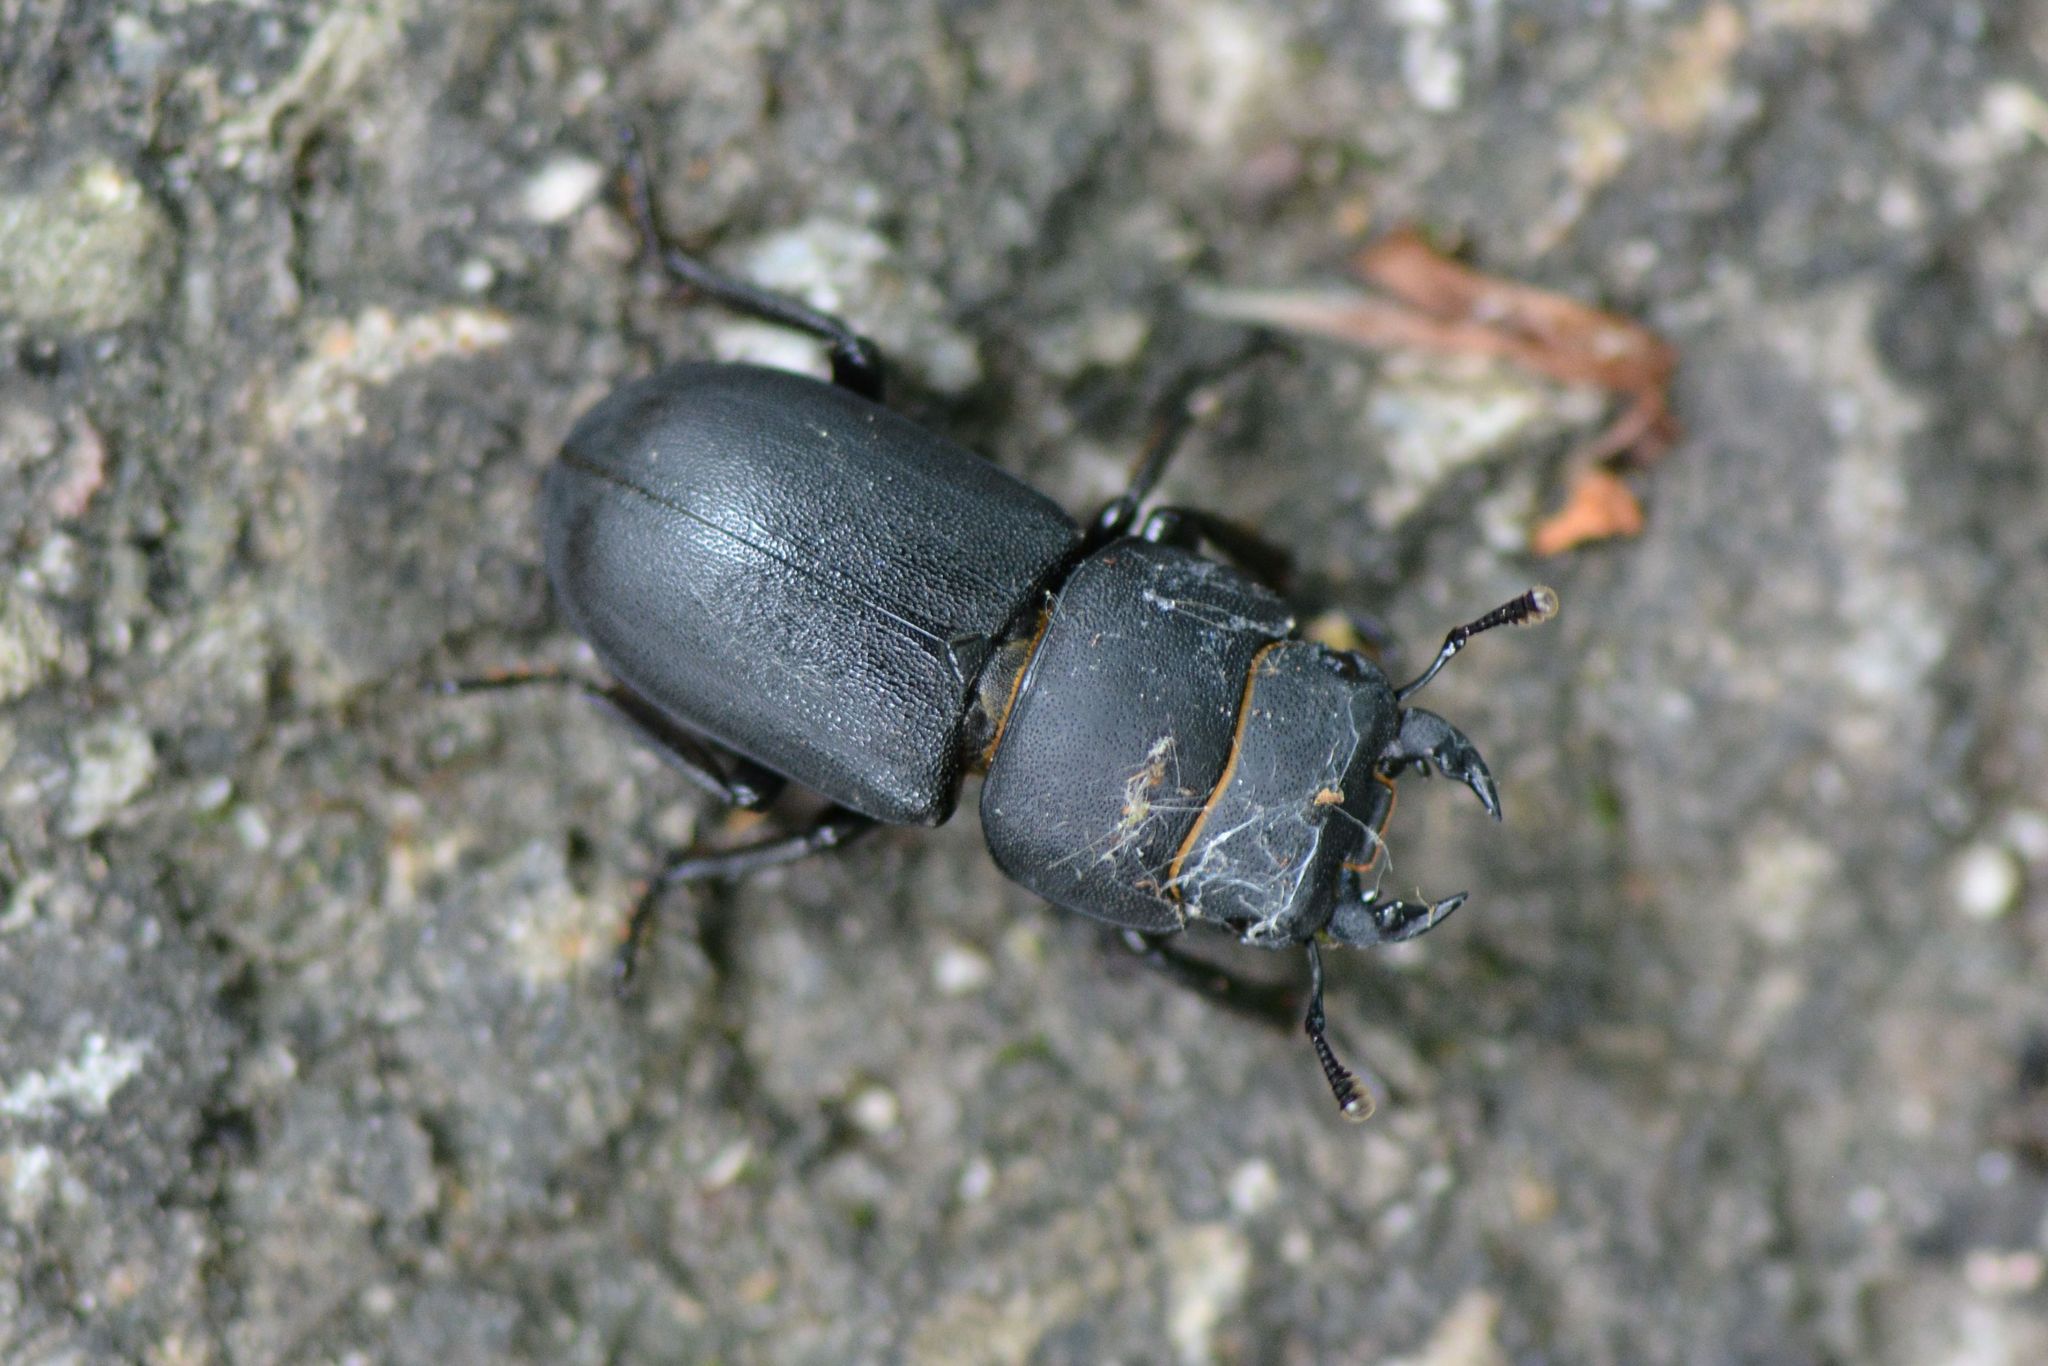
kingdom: Animalia
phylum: Arthropoda
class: Insecta
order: Coleoptera
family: Lucanidae
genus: Dorcus
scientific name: Dorcus parallelipipedus
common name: Lesser stag beetle
